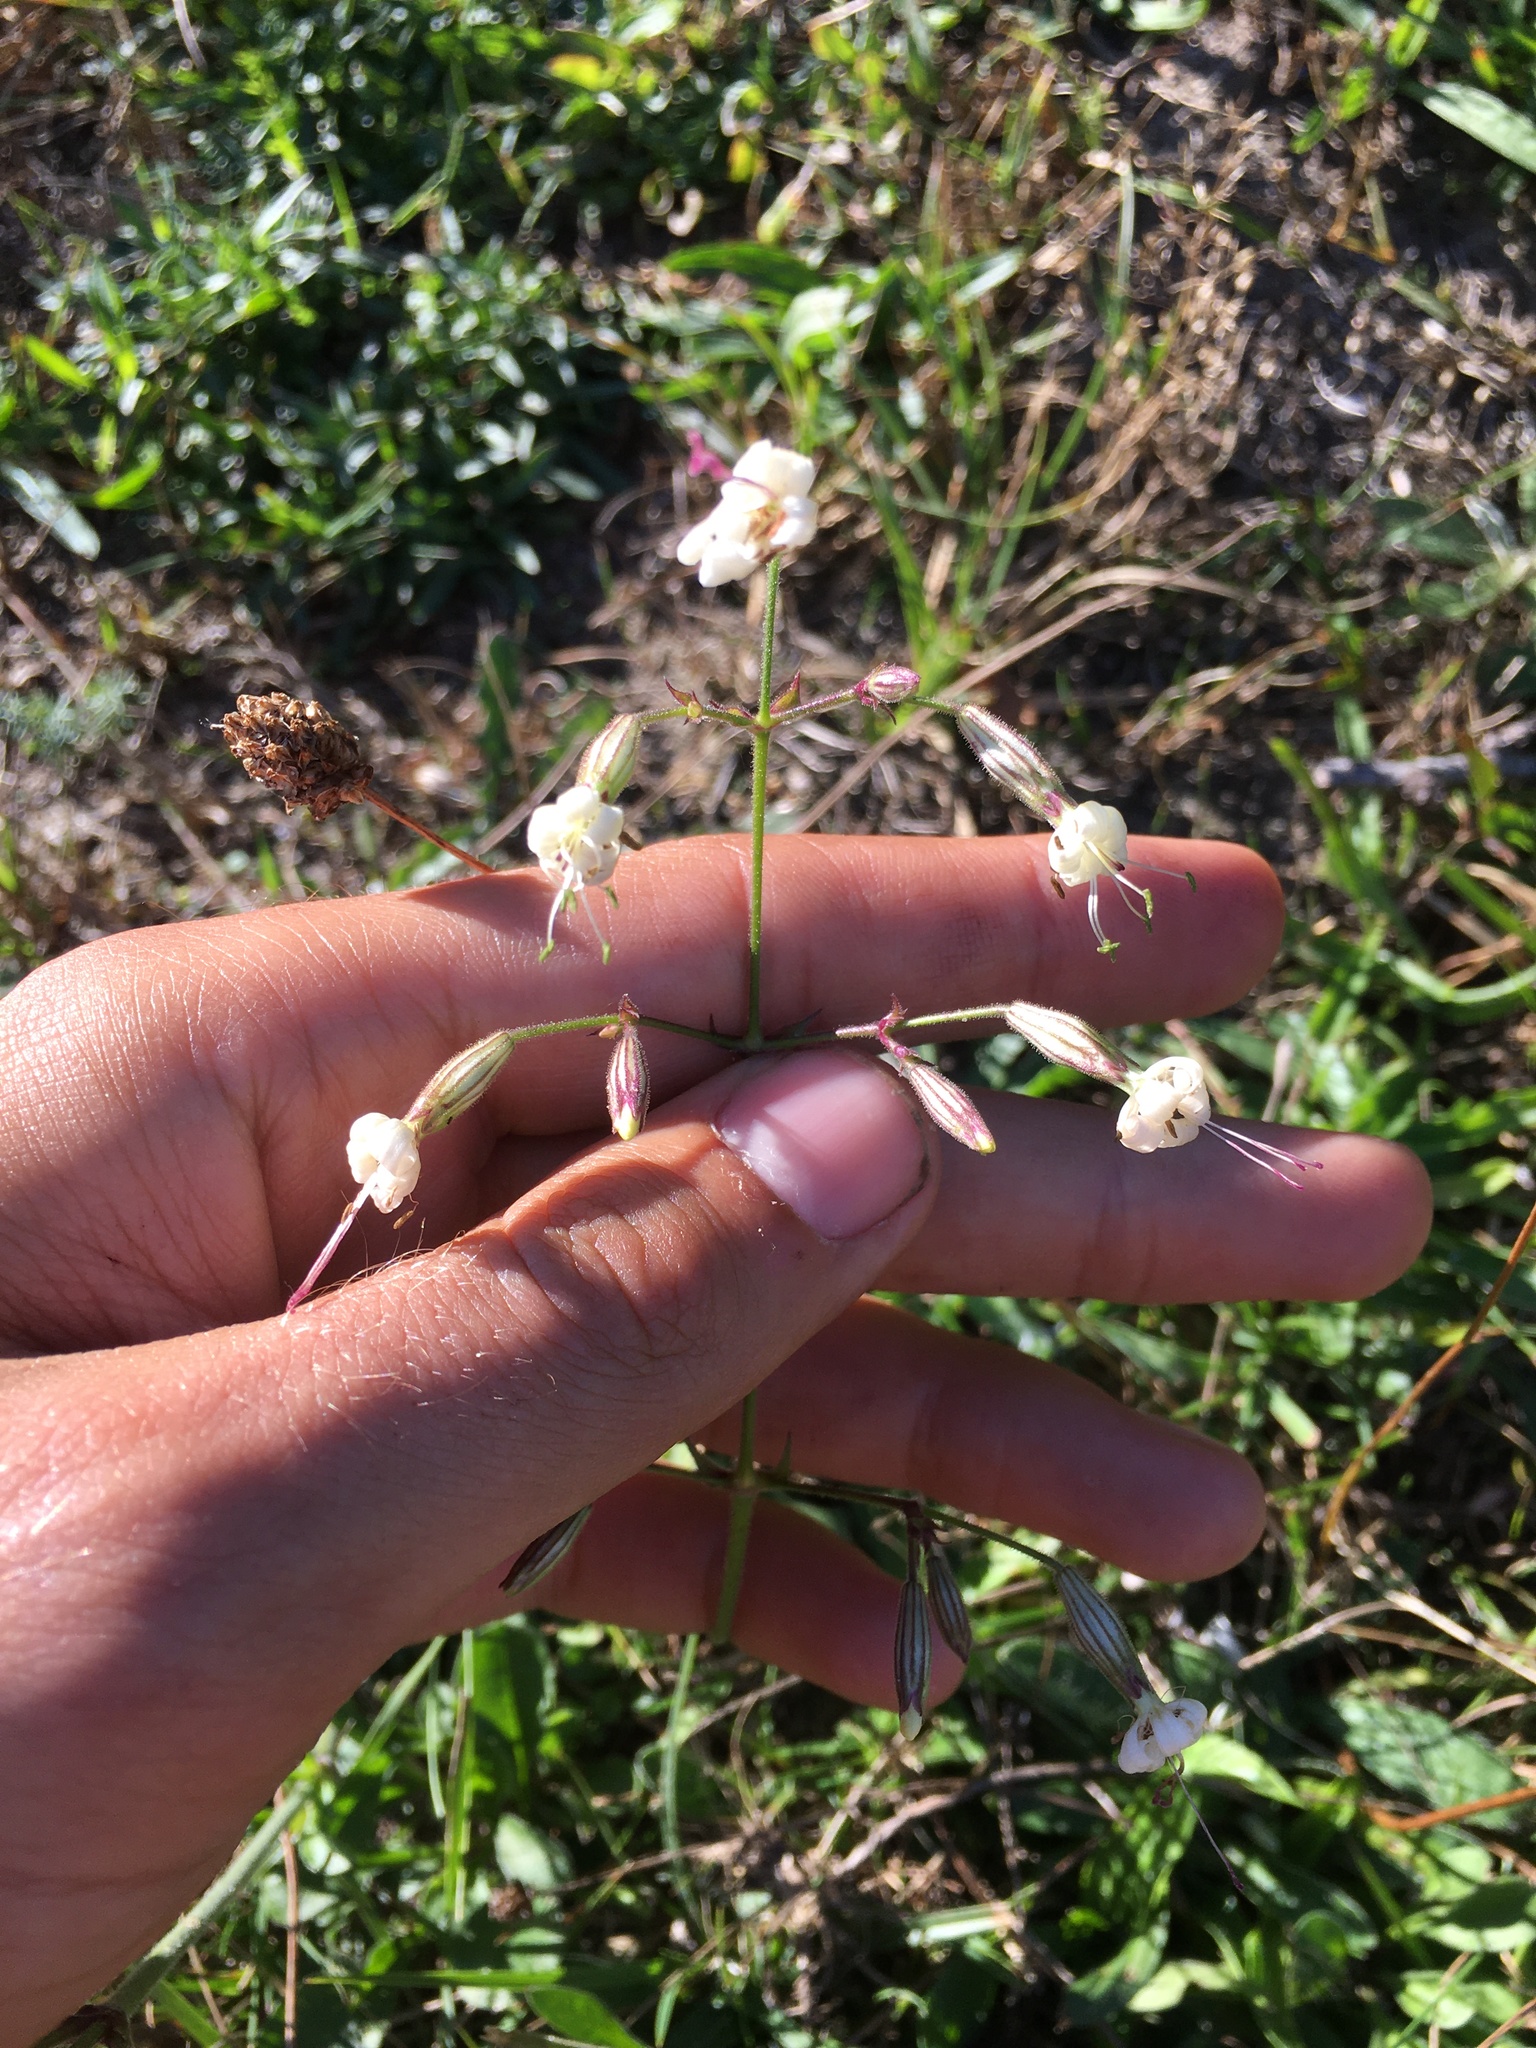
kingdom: Plantae
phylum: Tracheophyta
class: Magnoliopsida
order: Caryophyllales
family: Caryophyllaceae
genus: Silene
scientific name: Silene nutans
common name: Nottingham catchfly
